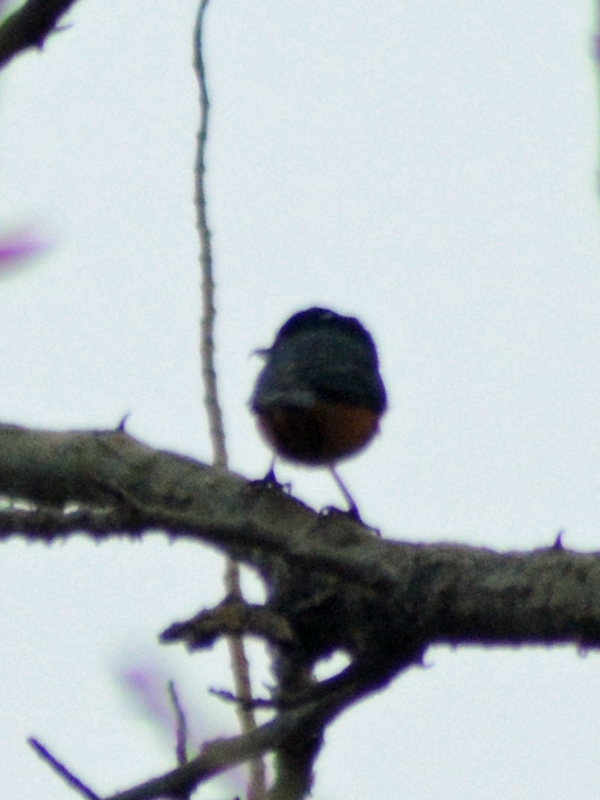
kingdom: Animalia
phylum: Chordata
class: Aves
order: Passeriformes
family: Thraupidae
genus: Diglossa
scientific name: Diglossa baritula
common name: Cinnamon-bellied flowerpiercer
